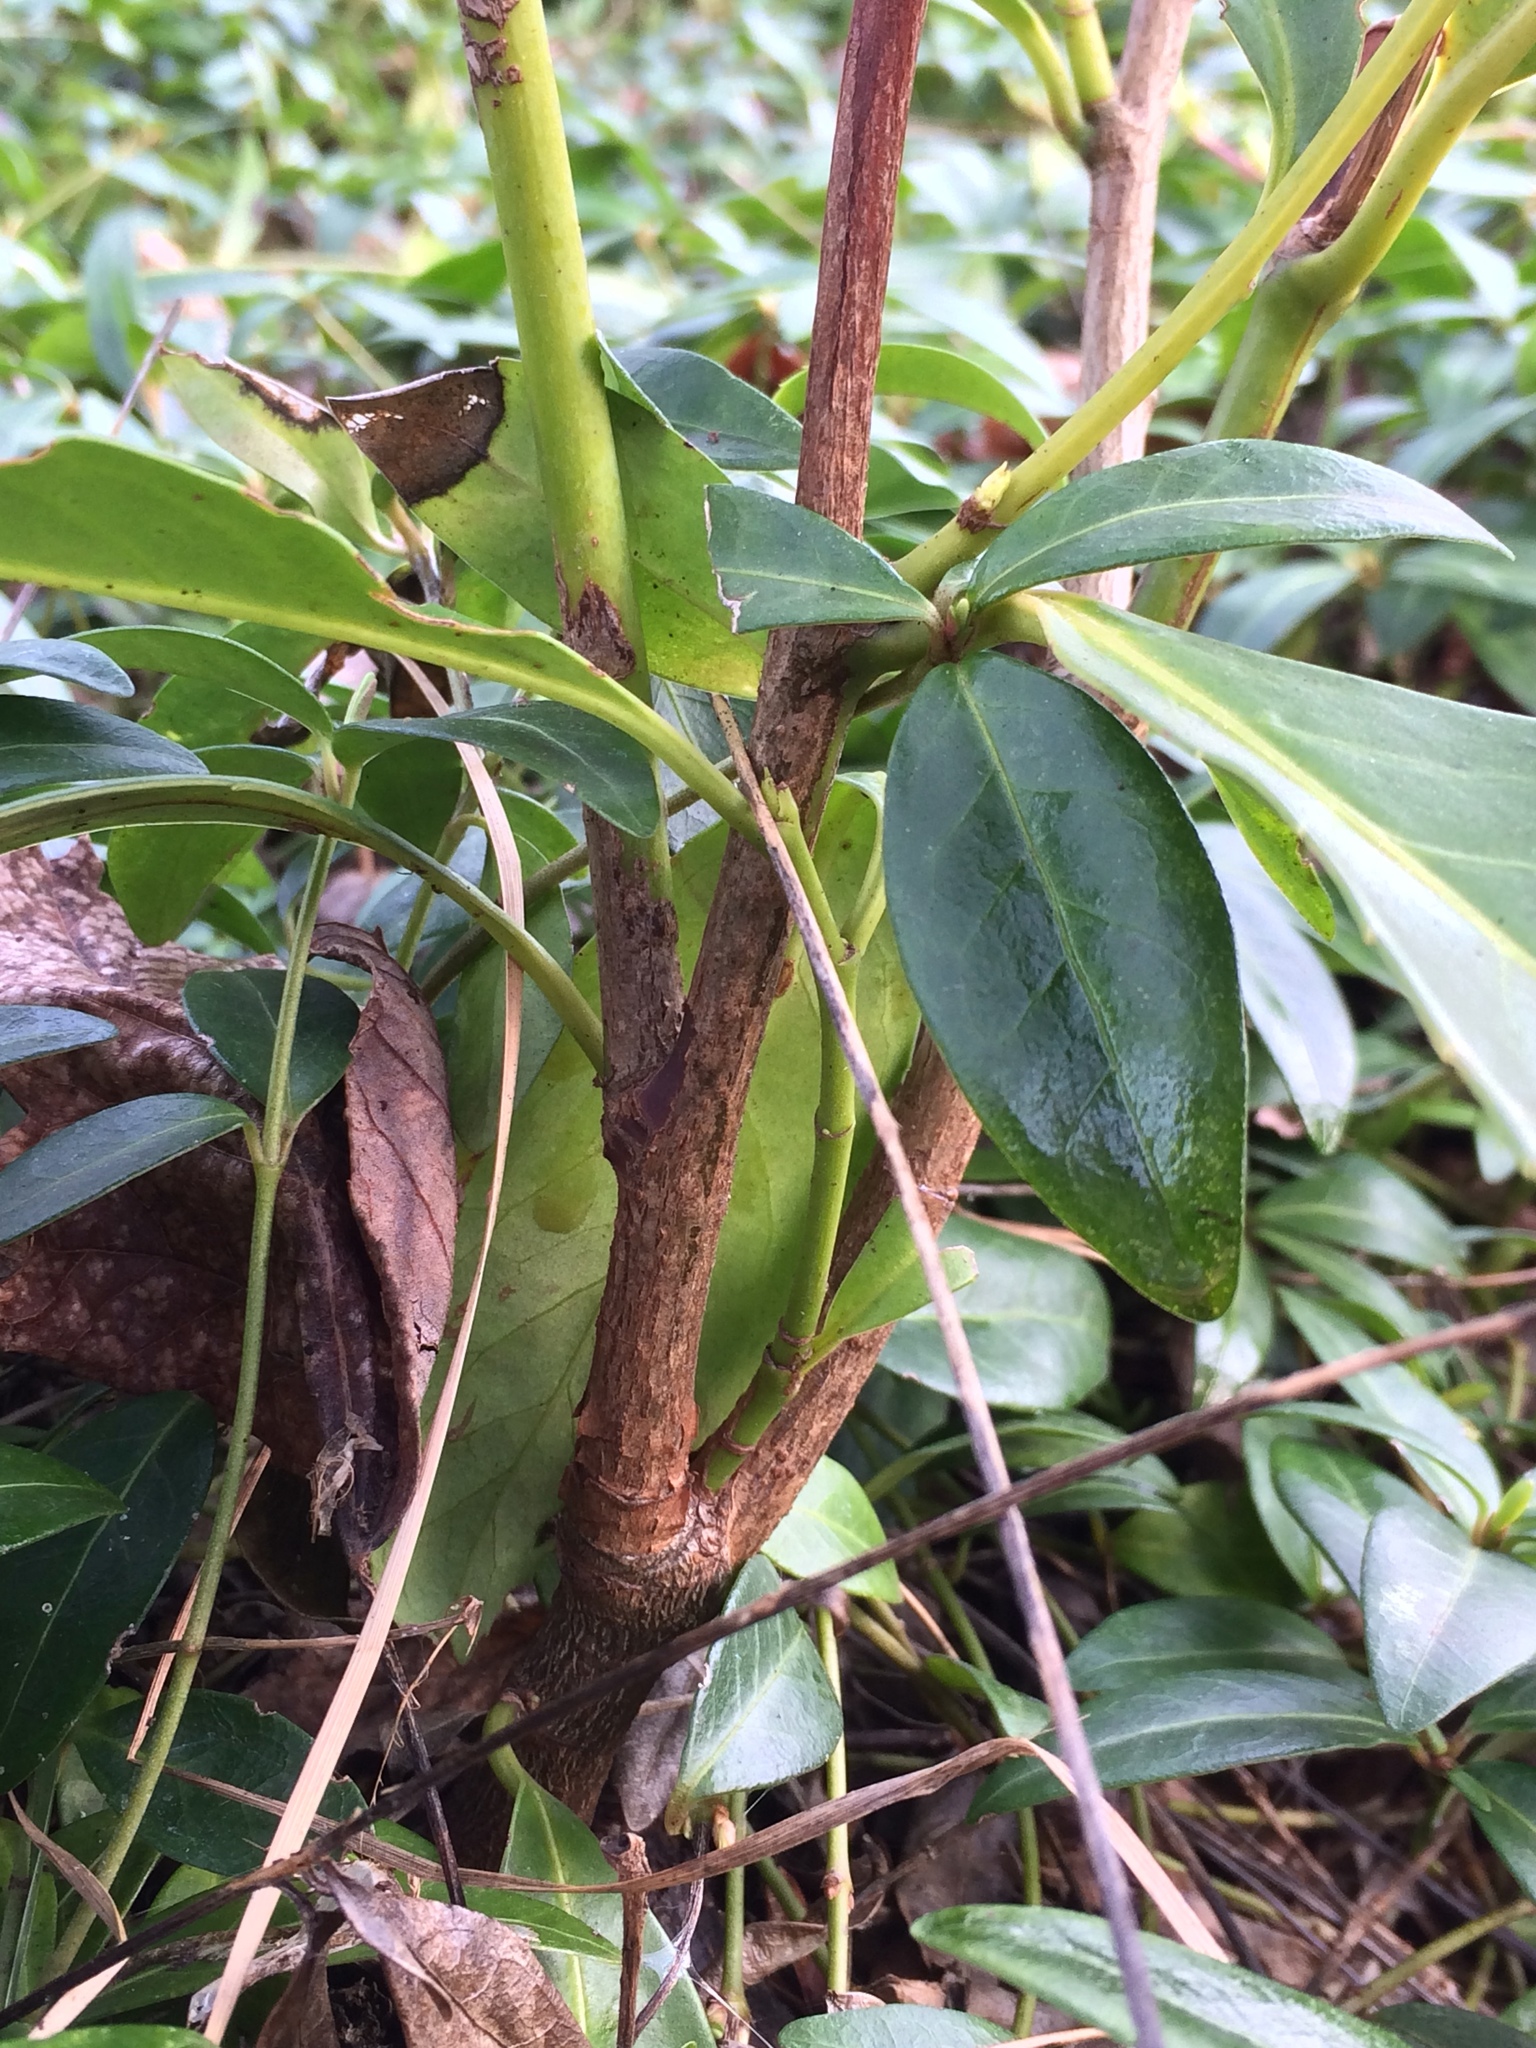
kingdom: Plantae
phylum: Tracheophyta
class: Magnoliopsida
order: Rosales
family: Rosaceae
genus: Prunus
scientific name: Prunus laurocerasus
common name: Cherry laurel
